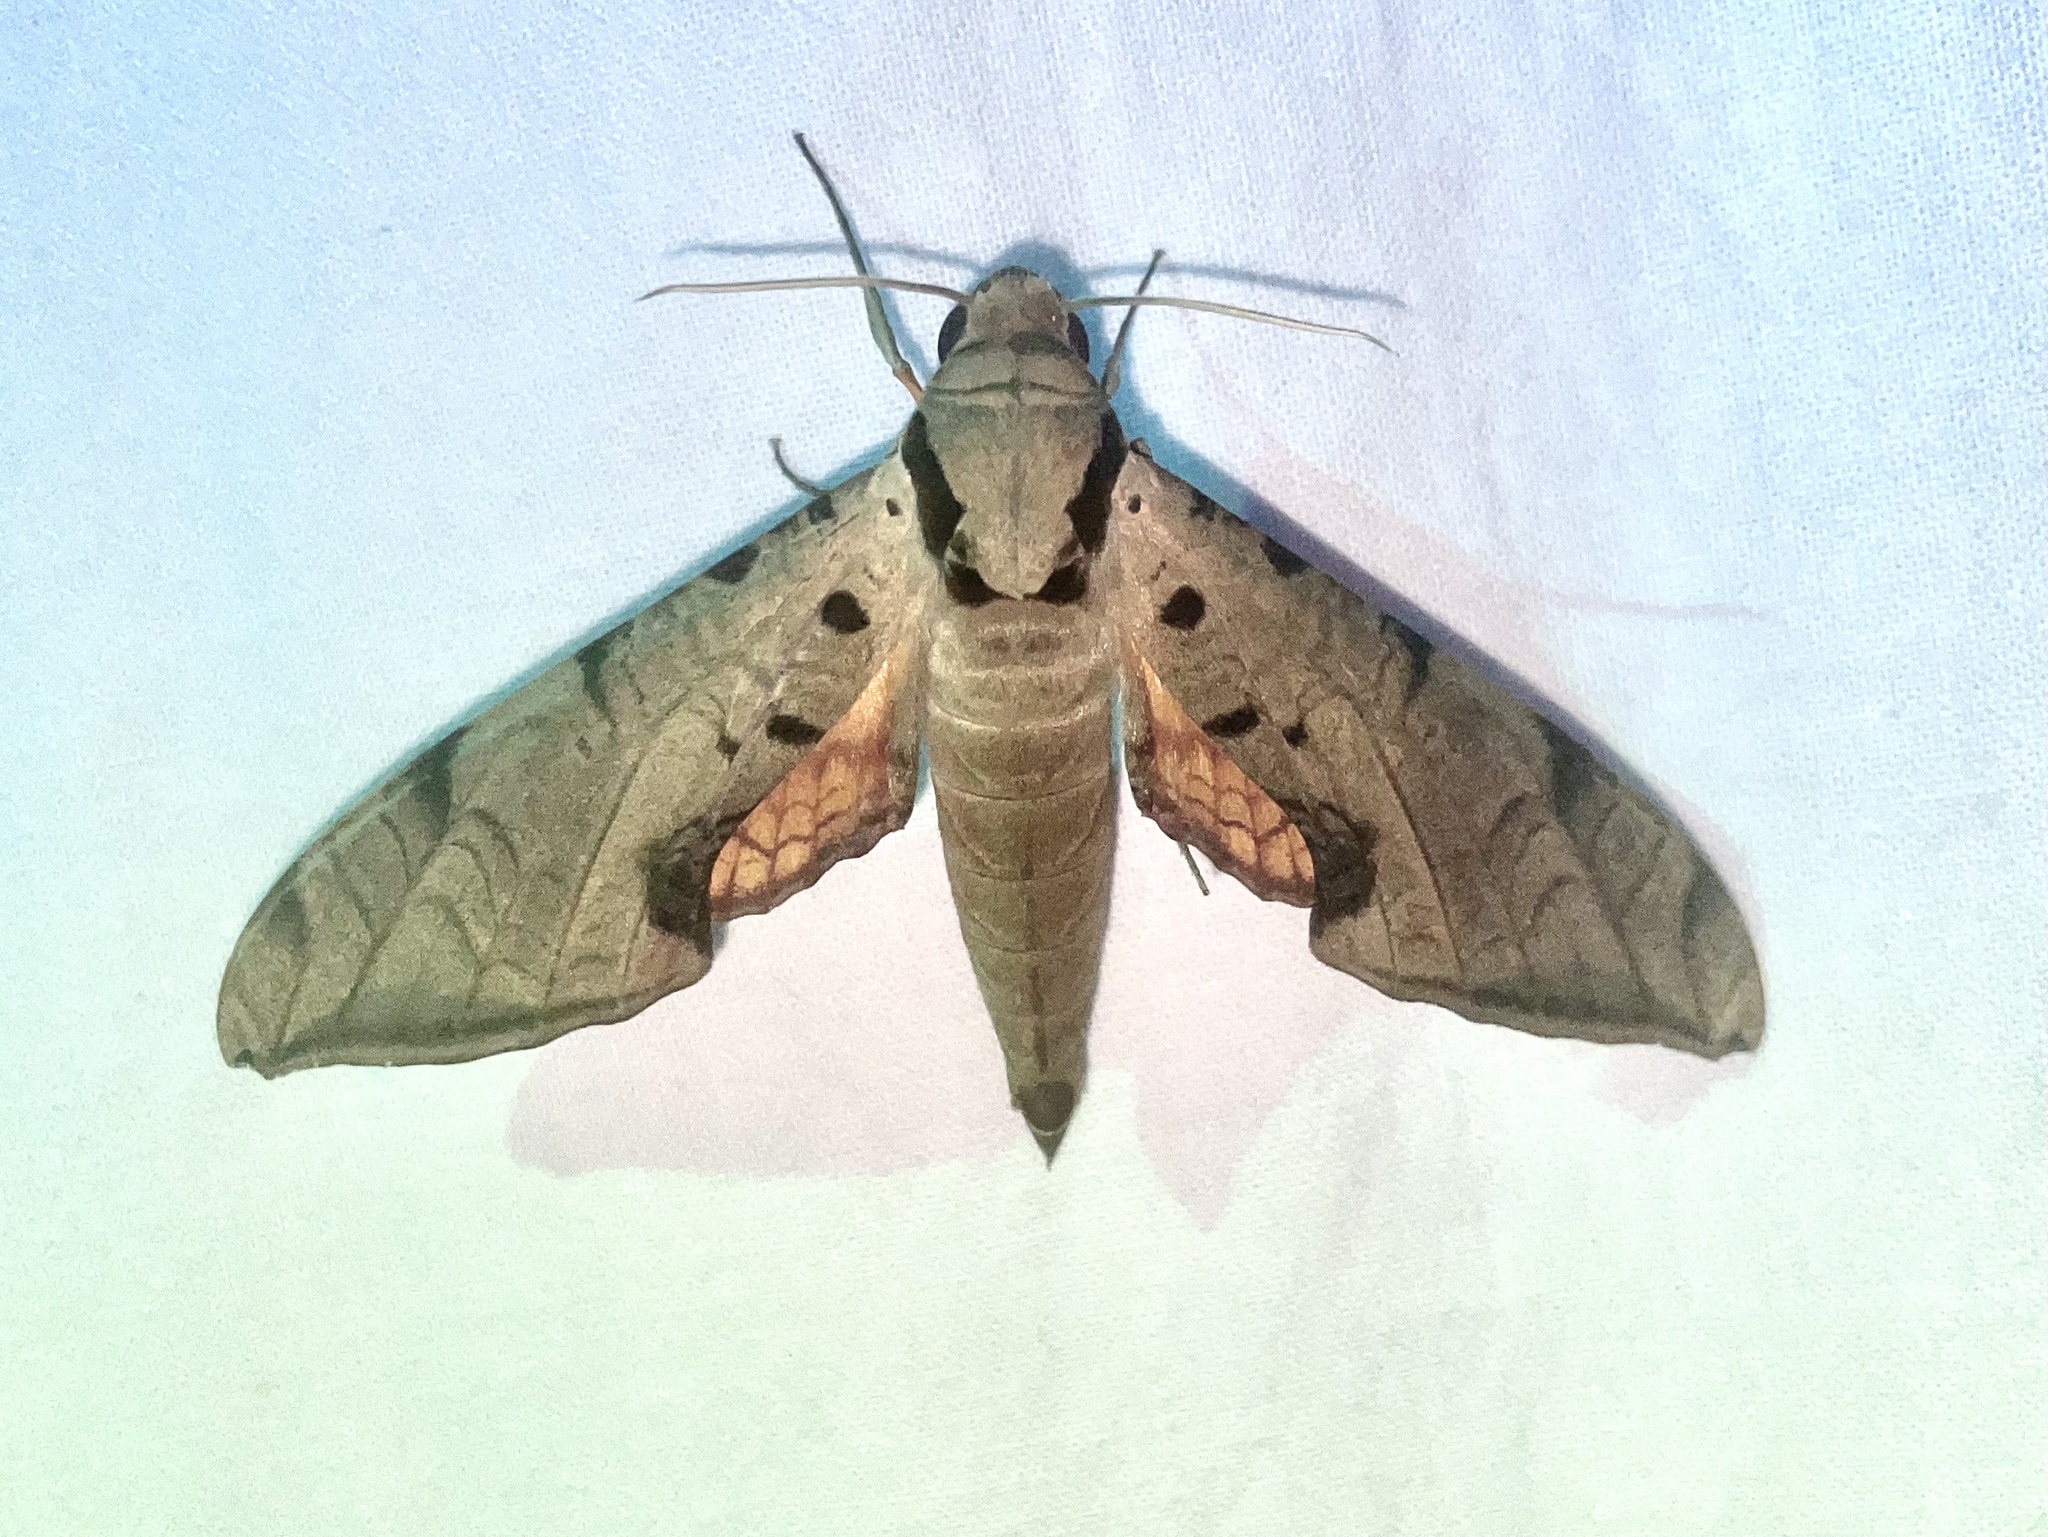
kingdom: Animalia
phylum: Arthropoda
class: Insecta
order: Lepidoptera
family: Sphingidae
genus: Protambulyx
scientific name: Protambulyx strigilis
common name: Streaked sphinx
